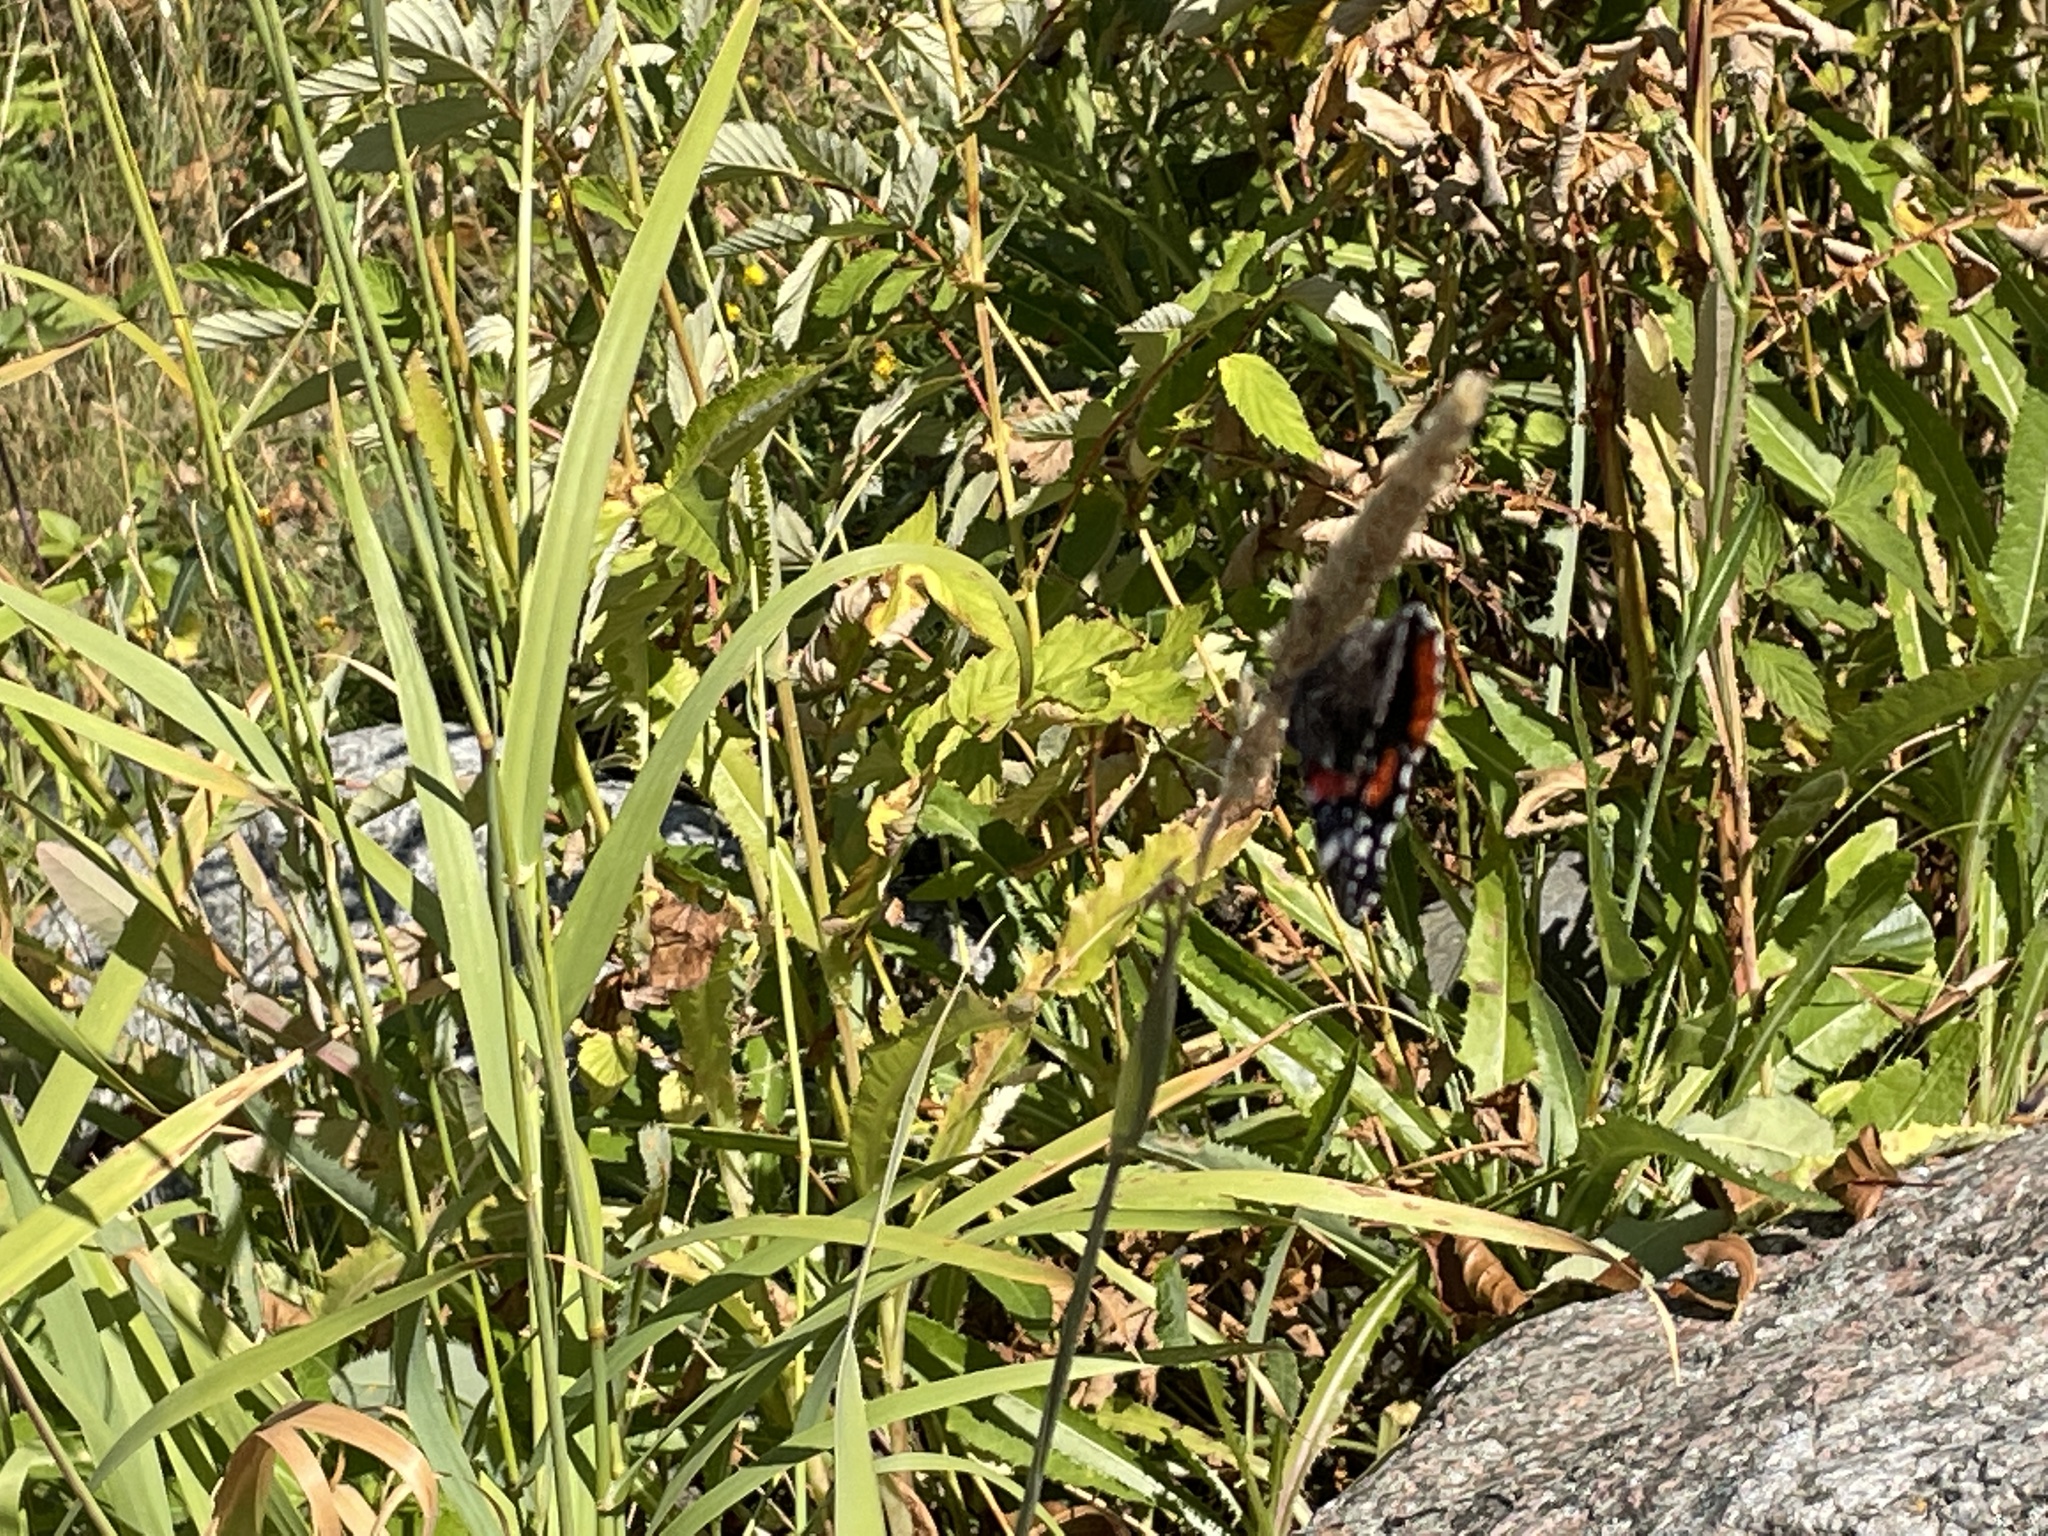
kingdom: Animalia
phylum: Arthropoda
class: Insecta
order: Lepidoptera
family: Nymphalidae
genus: Vanessa
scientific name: Vanessa atalanta
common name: Red admiral
